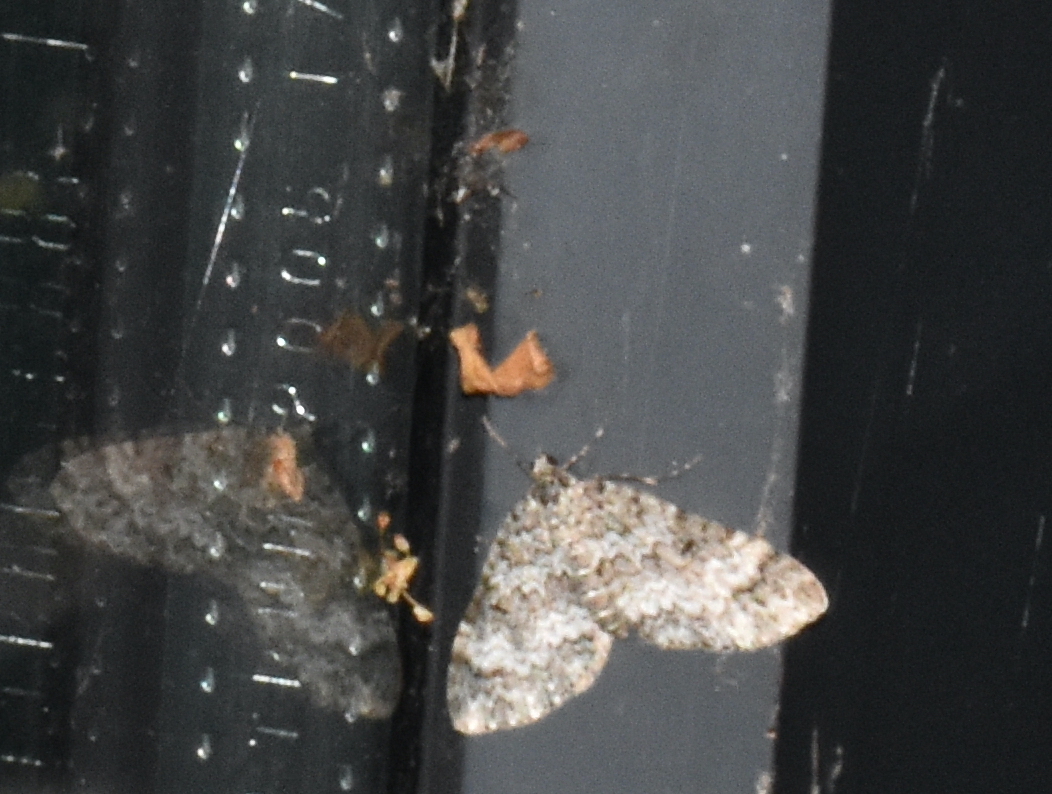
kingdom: Animalia
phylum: Arthropoda
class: Insecta
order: Lepidoptera
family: Geometridae
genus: Spargania
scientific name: Spargania magnoliata
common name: Double-banded carpet
